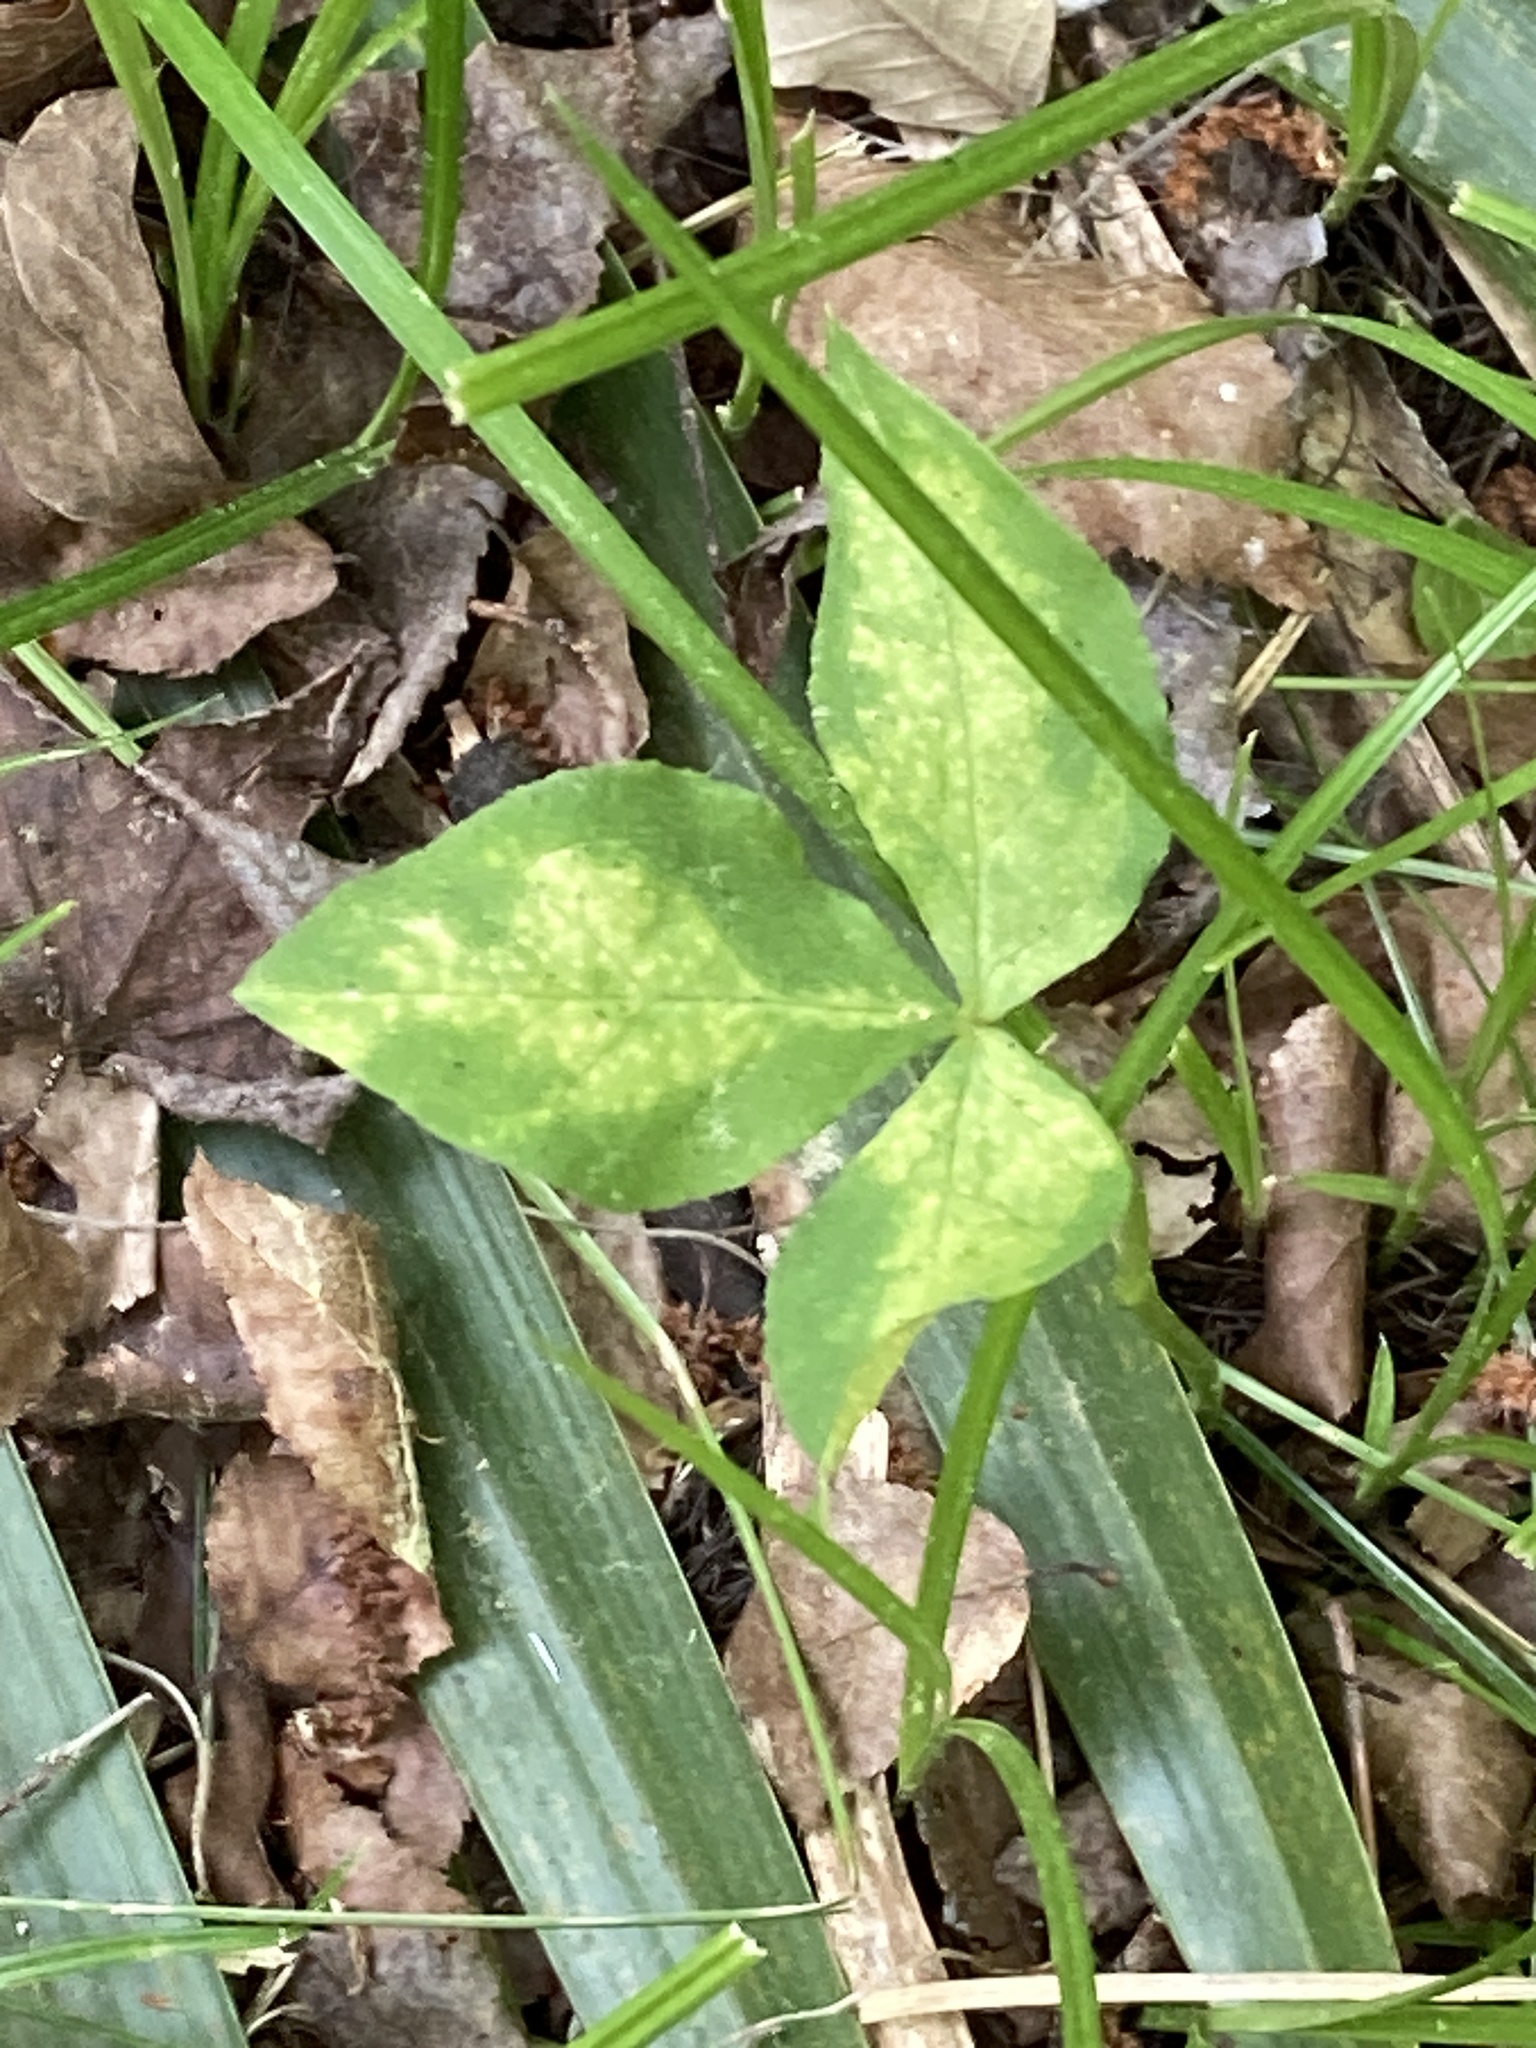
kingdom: Plantae
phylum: Tracheophyta
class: Liliopsida
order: Alismatales
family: Araceae
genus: Arisaema
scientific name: Arisaema acuminatum
